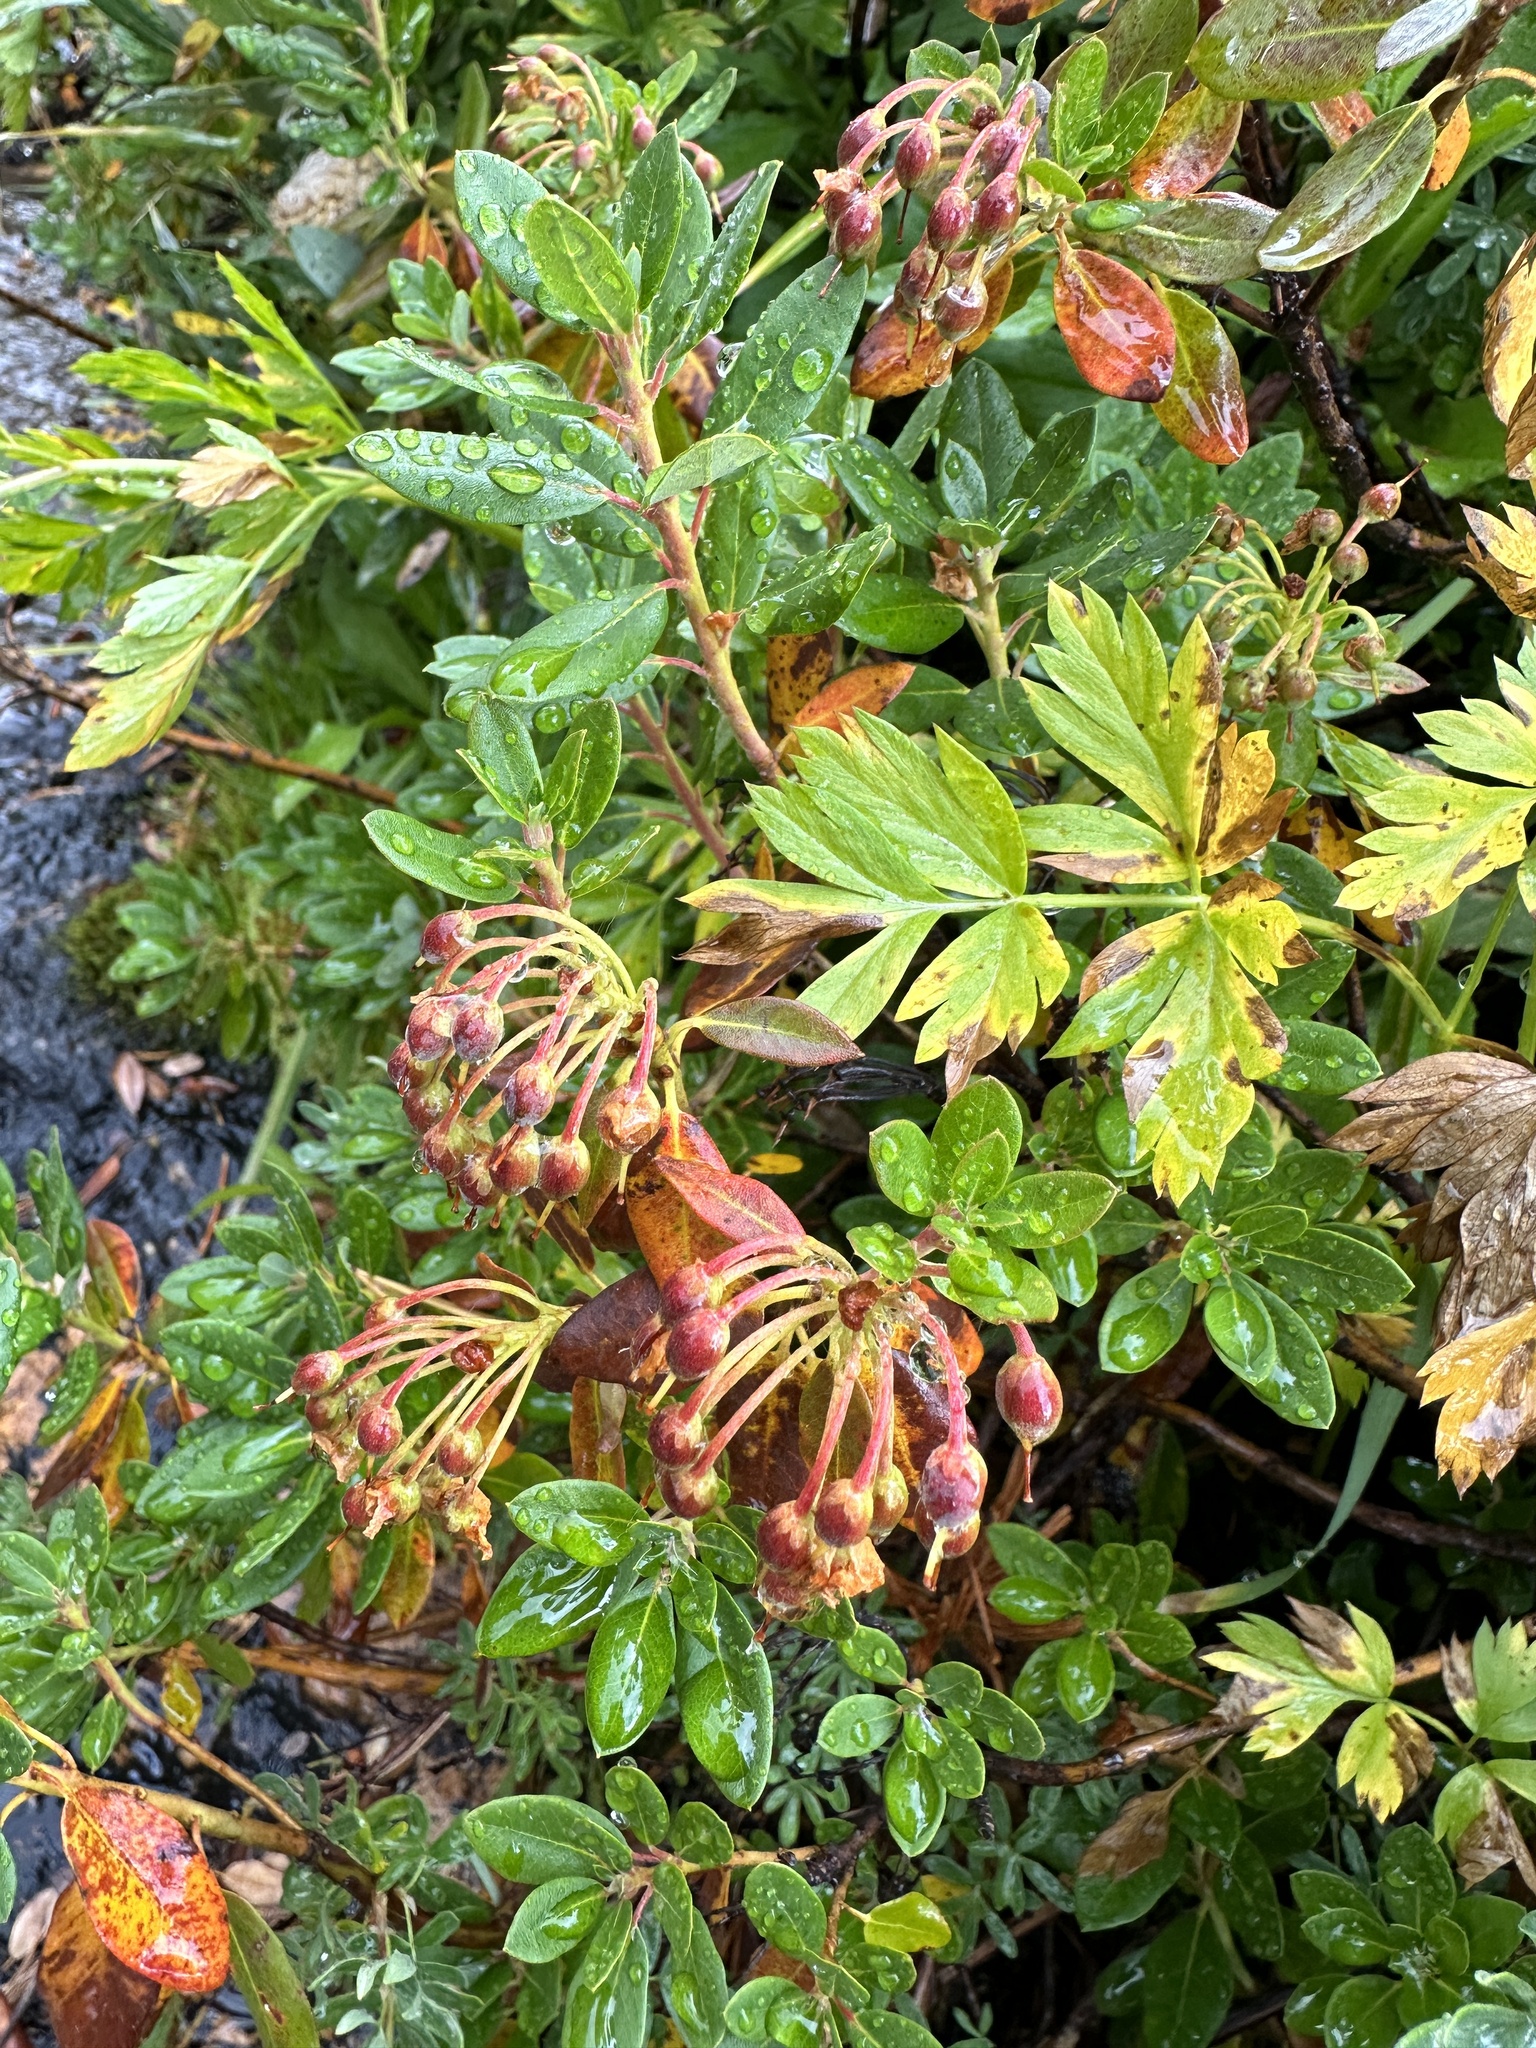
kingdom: Plantae
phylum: Tracheophyta
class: Magnoliopsida
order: Ericales
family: Ericaceae
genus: Rhododendron
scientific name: Rhododendron columbianum
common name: Western labrador tea
